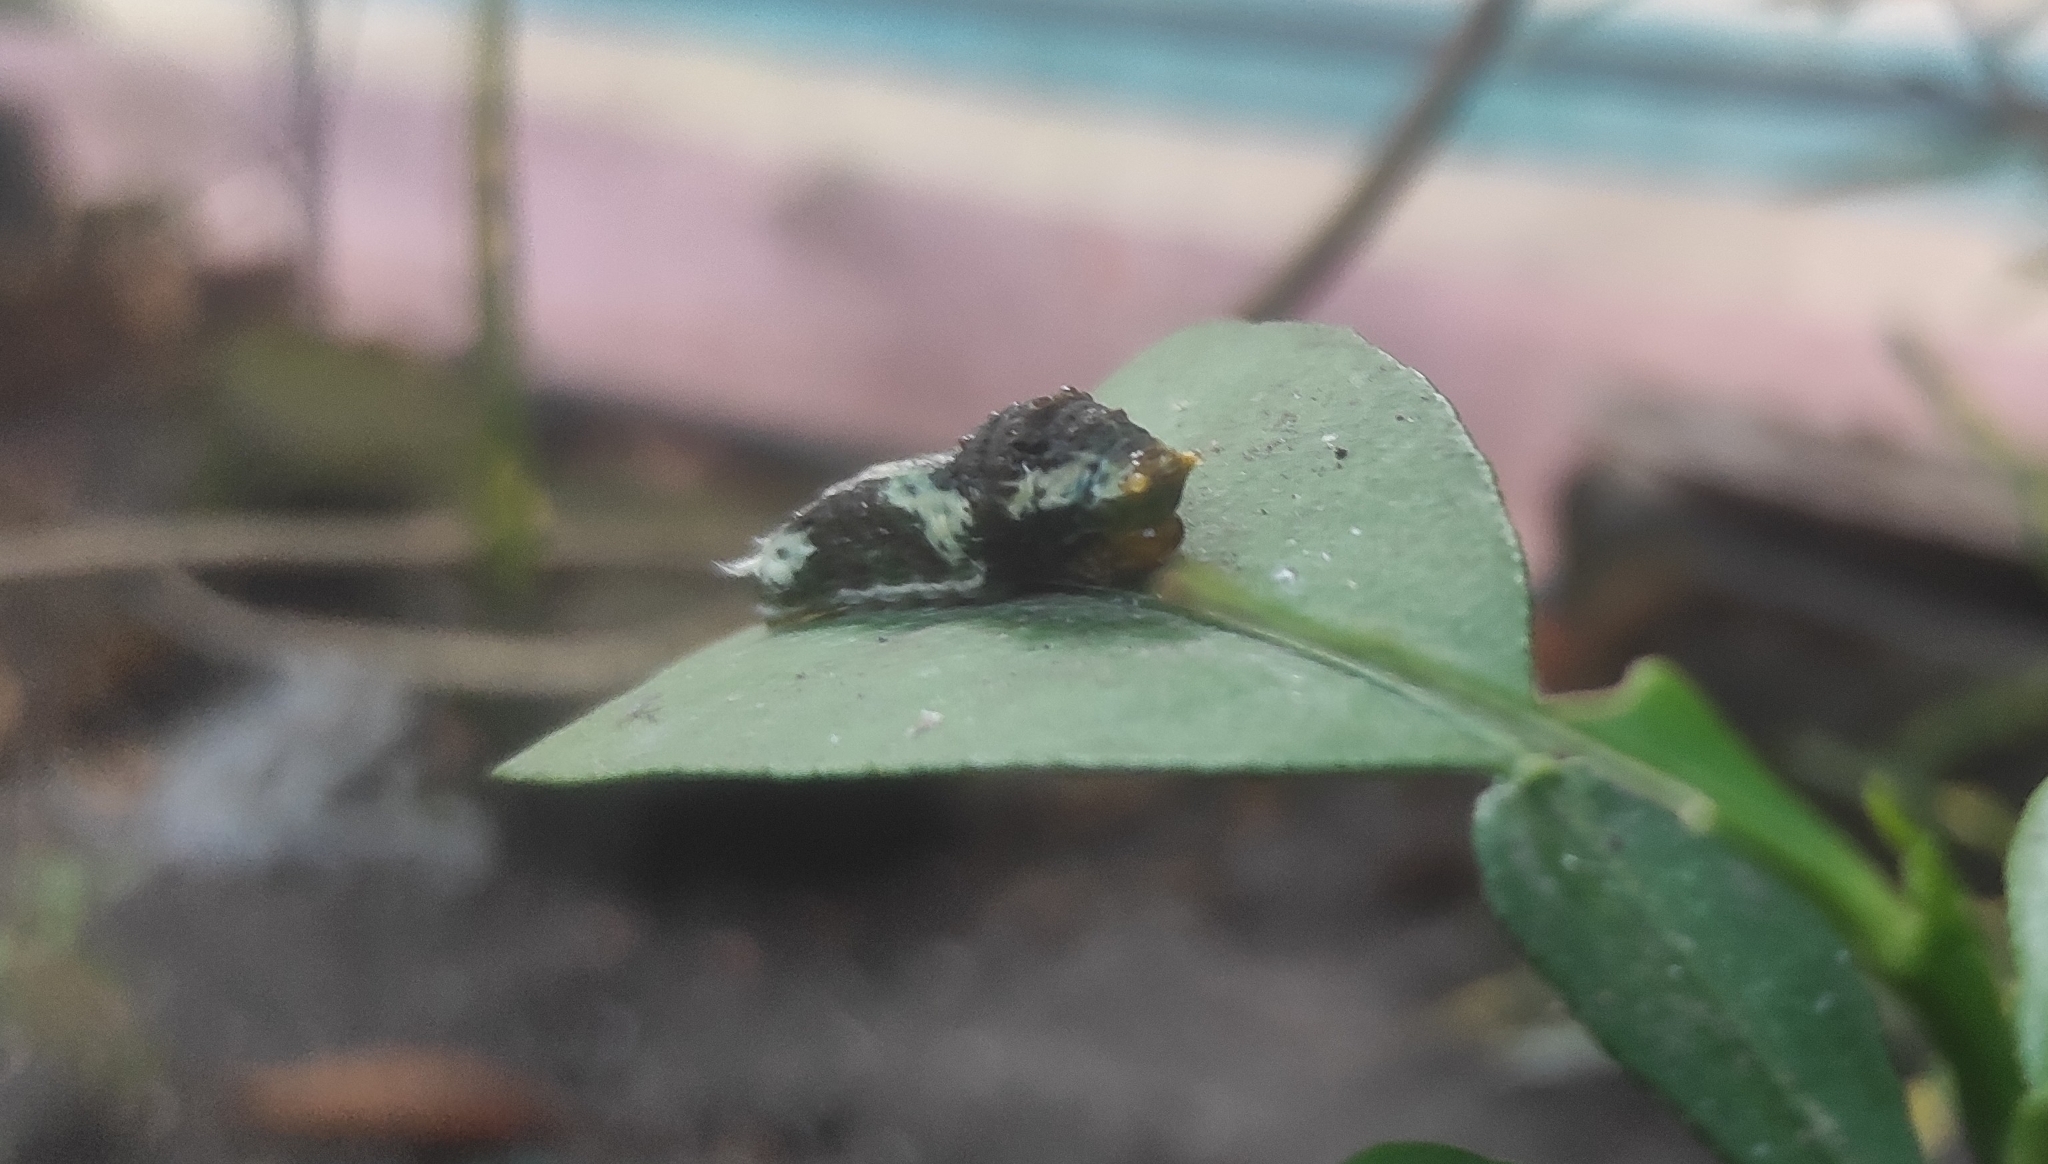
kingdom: Animalia
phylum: Arthropoda
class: Insecta
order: Lepidoptera
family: Papilionidae
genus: Papilio
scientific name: Papilio polytes
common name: Common mormon
